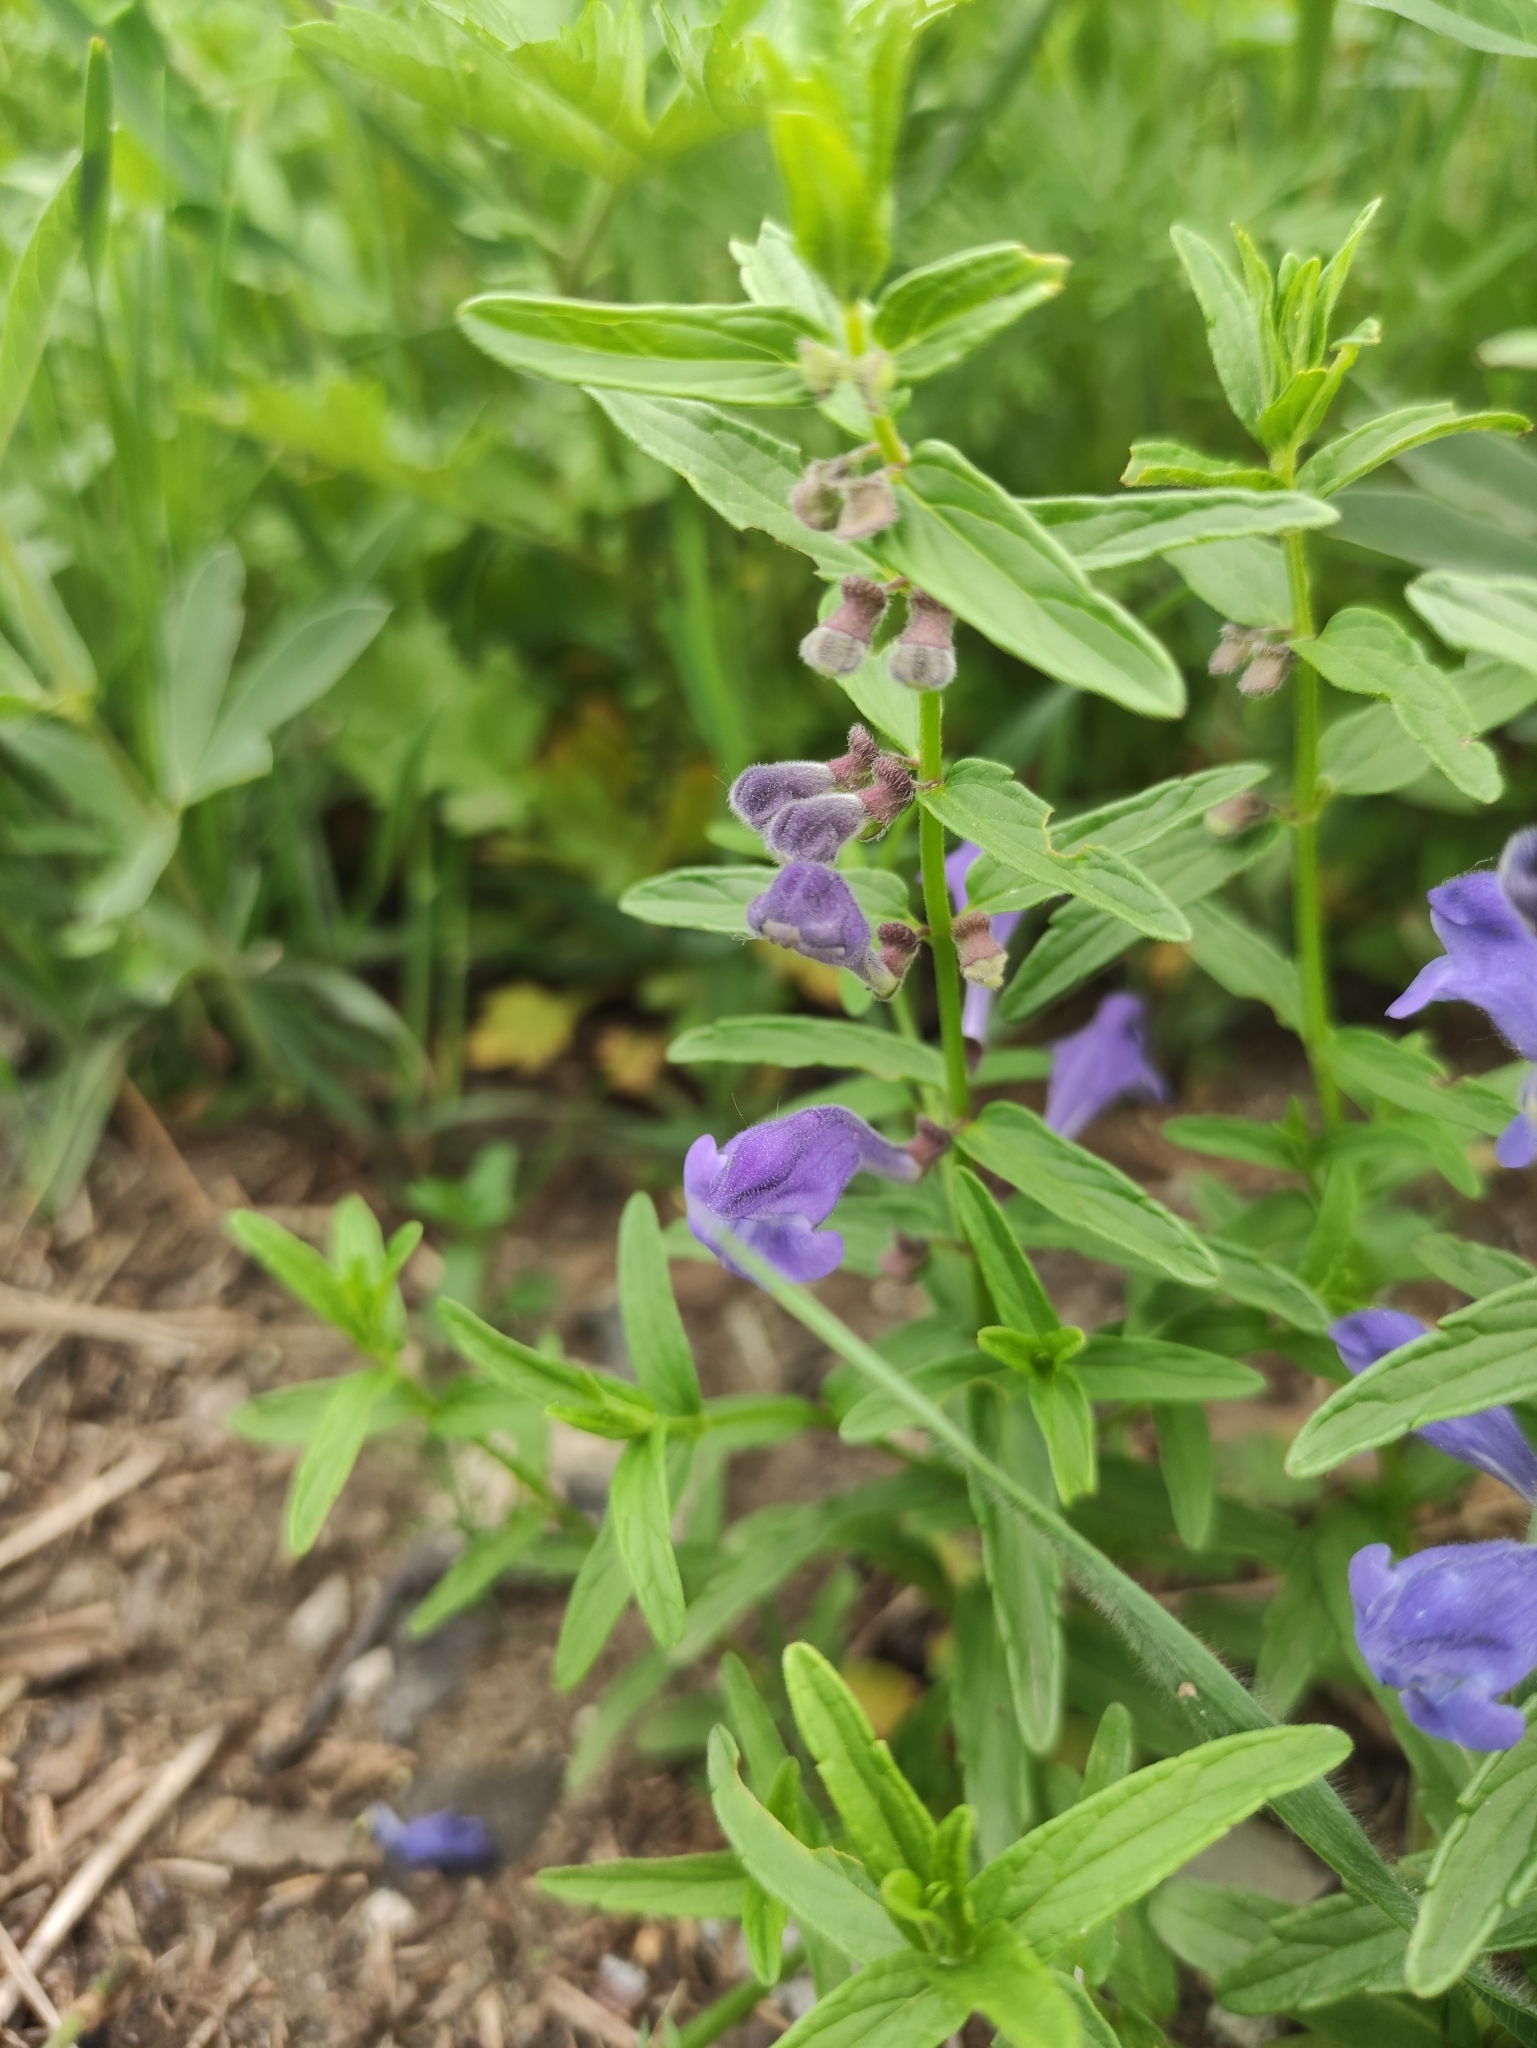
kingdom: Plantae
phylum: Tracheophyta
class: Magnoliopsida
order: Lamiales
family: Lamiaceae
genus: Scutellaria
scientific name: Scutellaria scordiifolia
